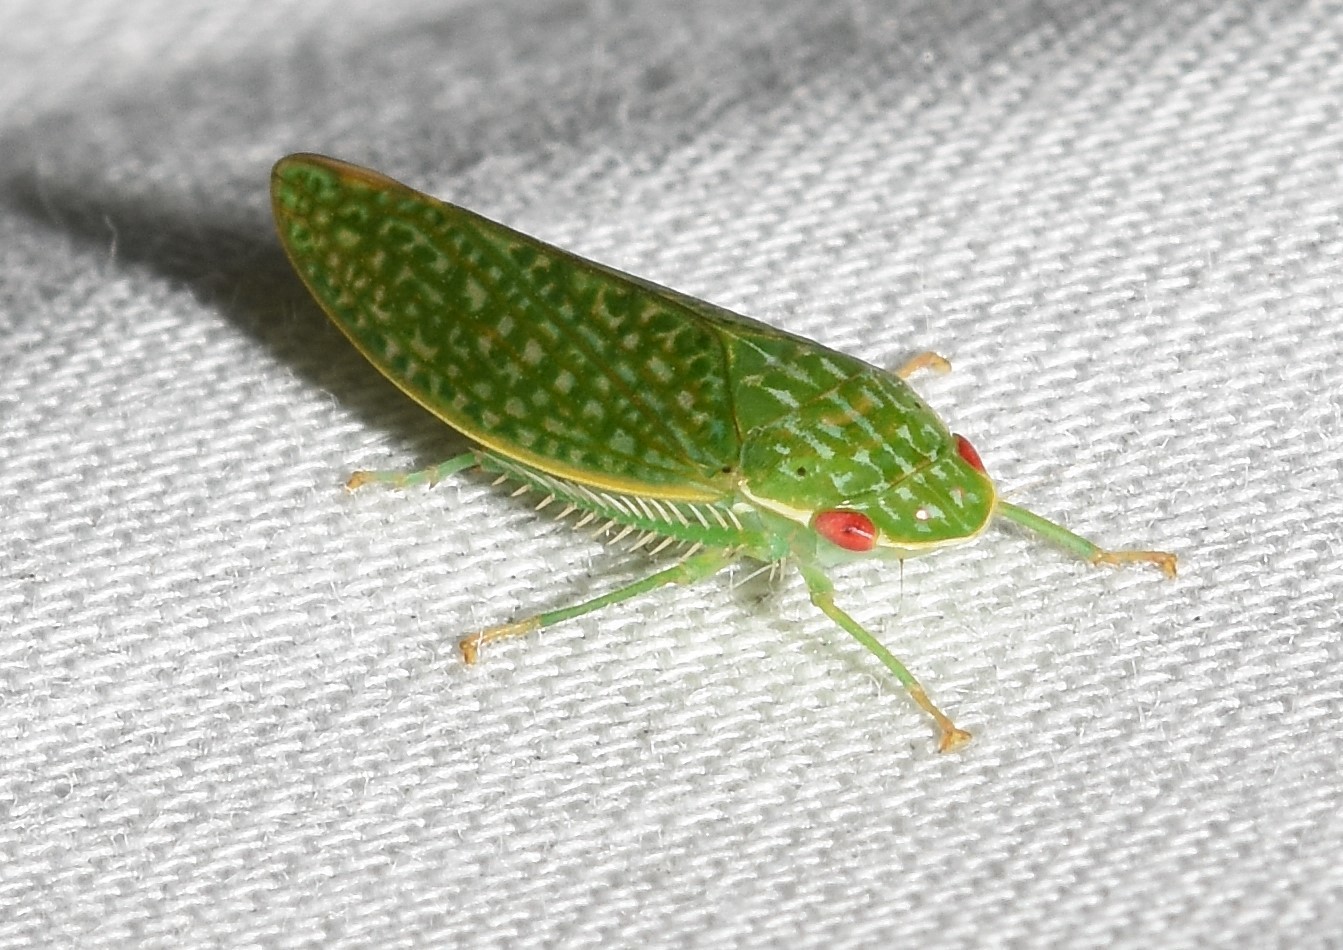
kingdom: Animalia
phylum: Arthropoda
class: Insecta
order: Hemiptera
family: Cicadellidae
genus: Rugosana
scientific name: Rugosana querci
